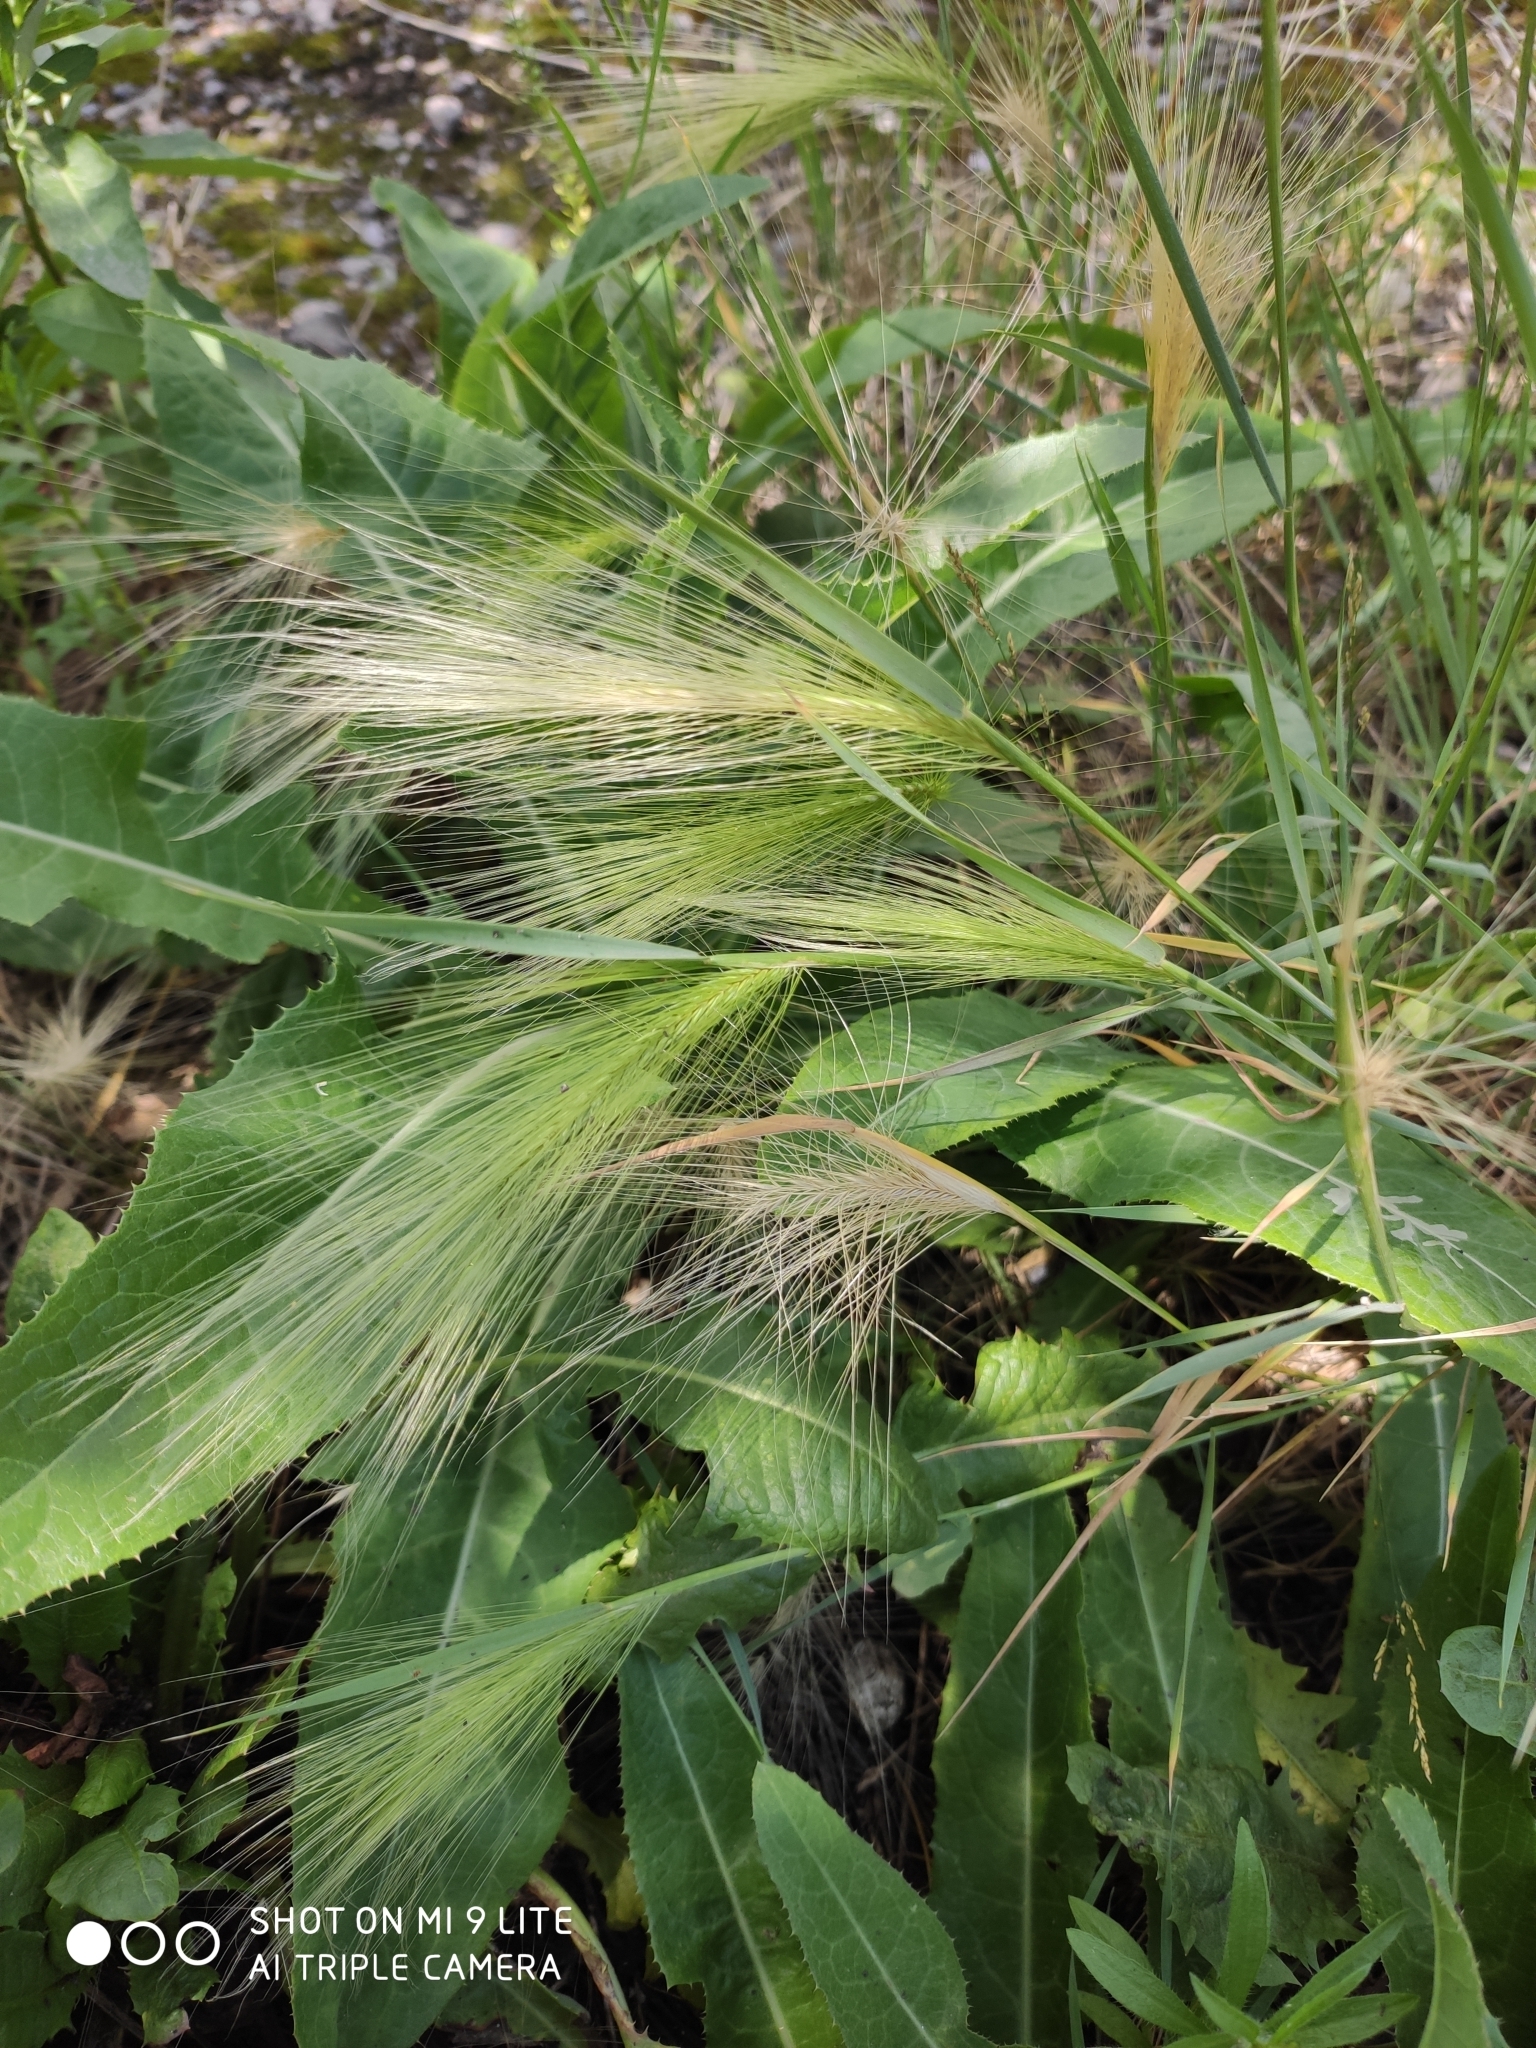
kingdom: Plantae
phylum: Tracheophyta
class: Liliopsida
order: Poales
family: Poaceae
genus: Hordeum
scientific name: Hordeum jubatum
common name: Foxtail barley
